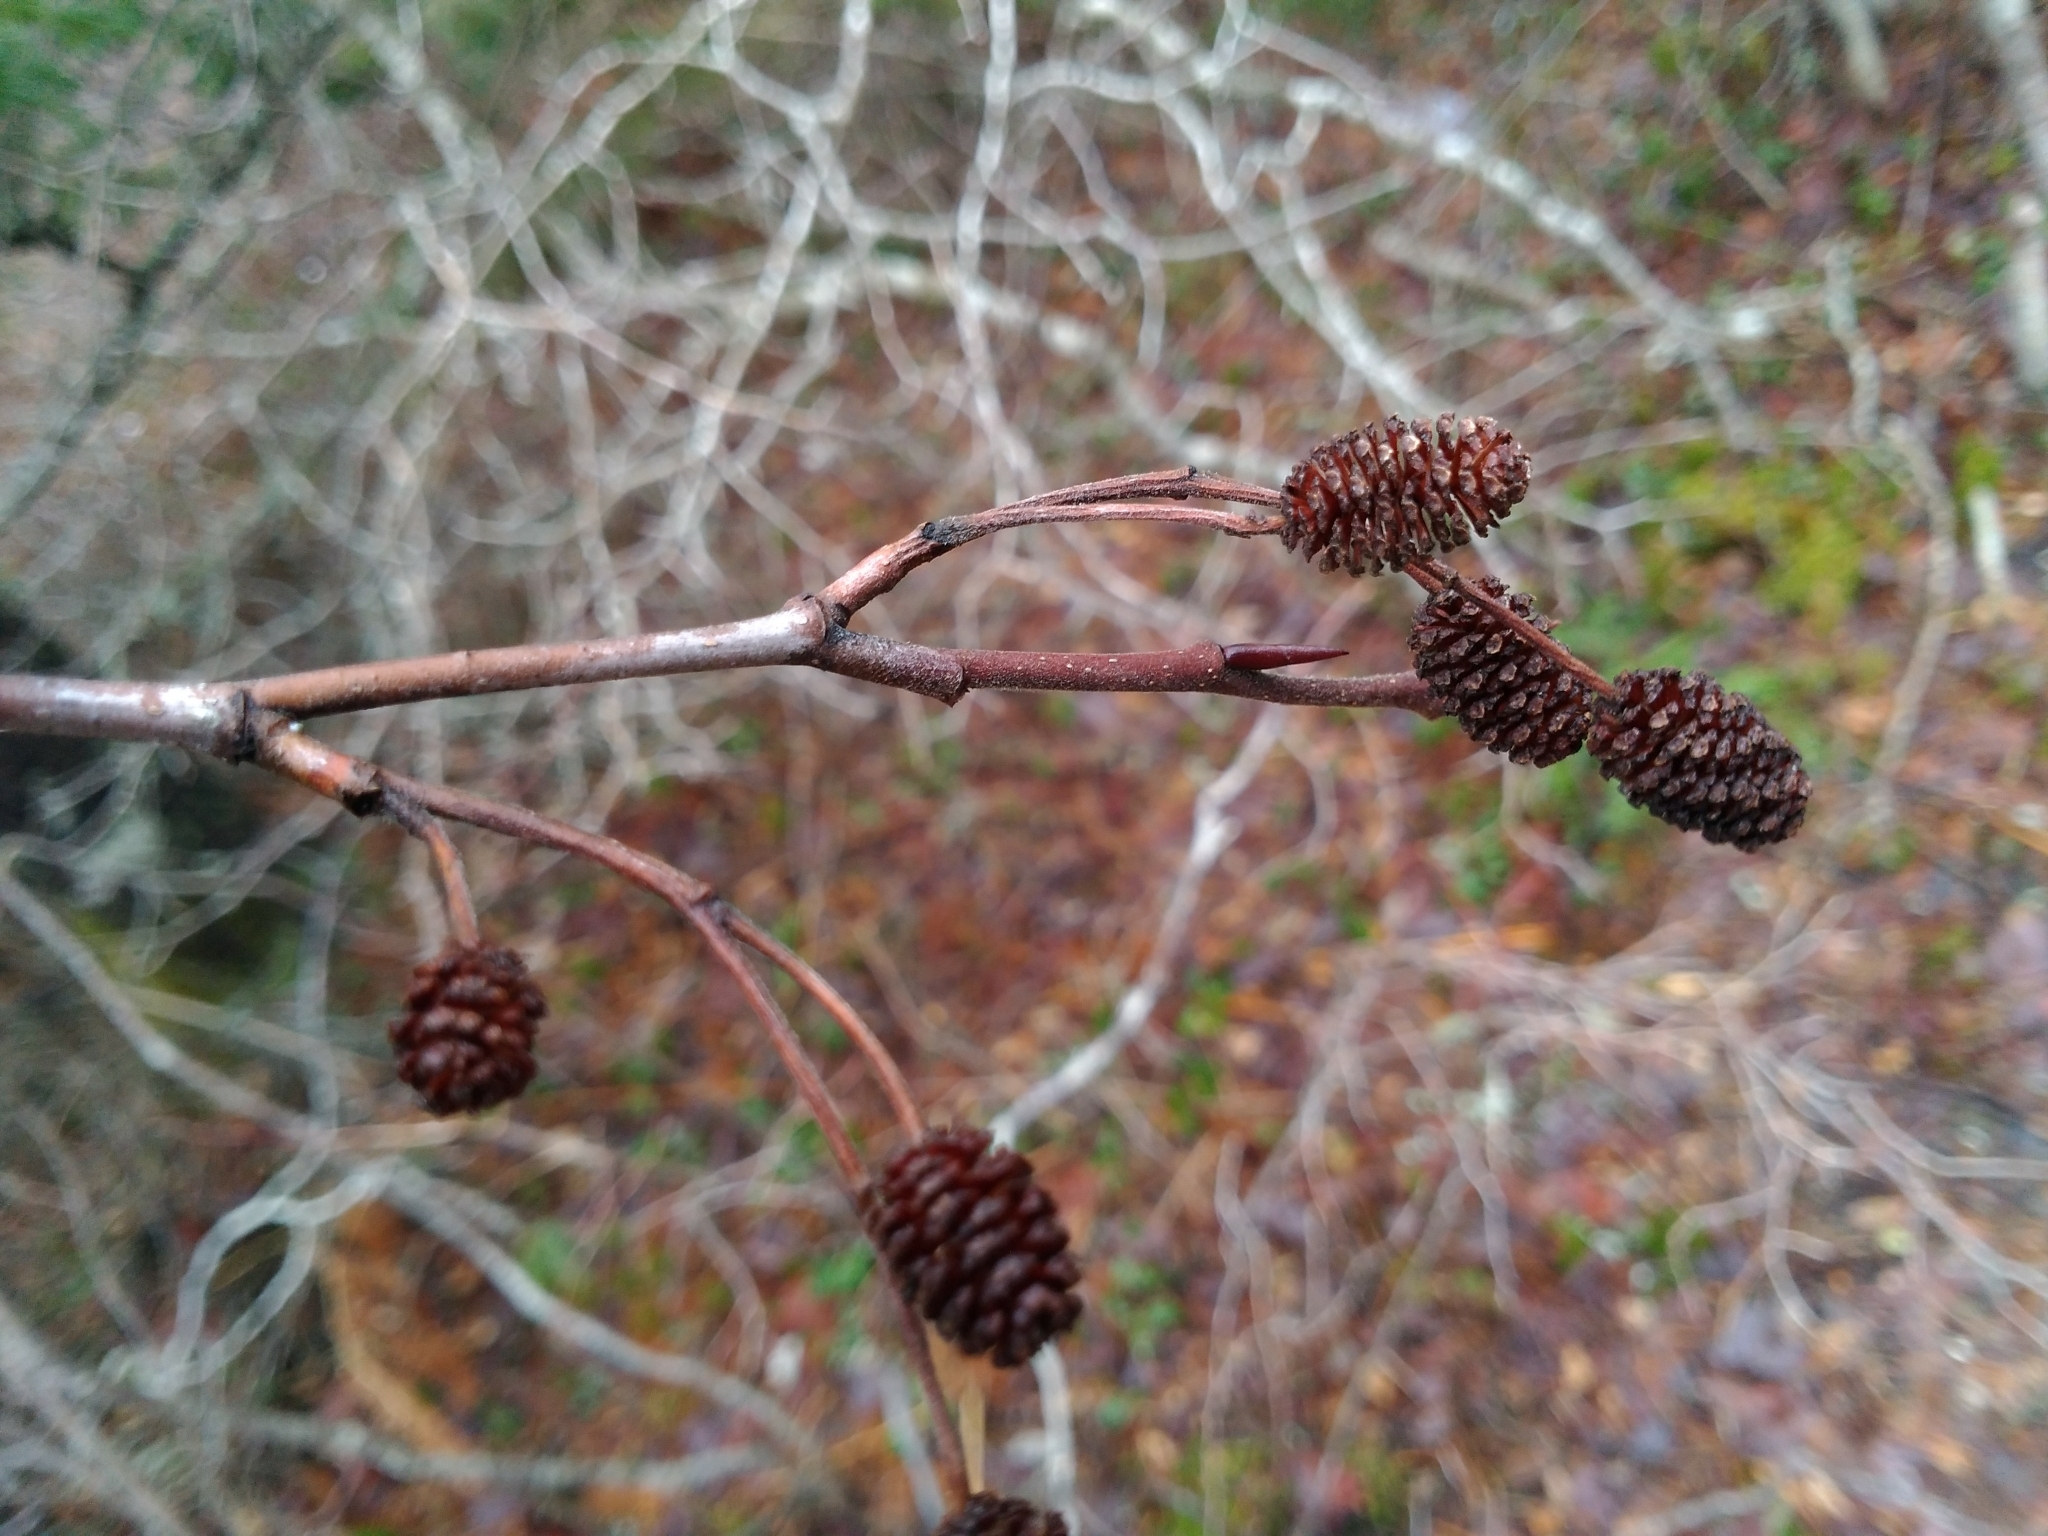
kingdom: Plantae
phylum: Tracheophyta
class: Magnoliopsida
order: Fagales
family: Betulaceae
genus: Alnus
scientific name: Alnus alnobetula
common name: Green alder
